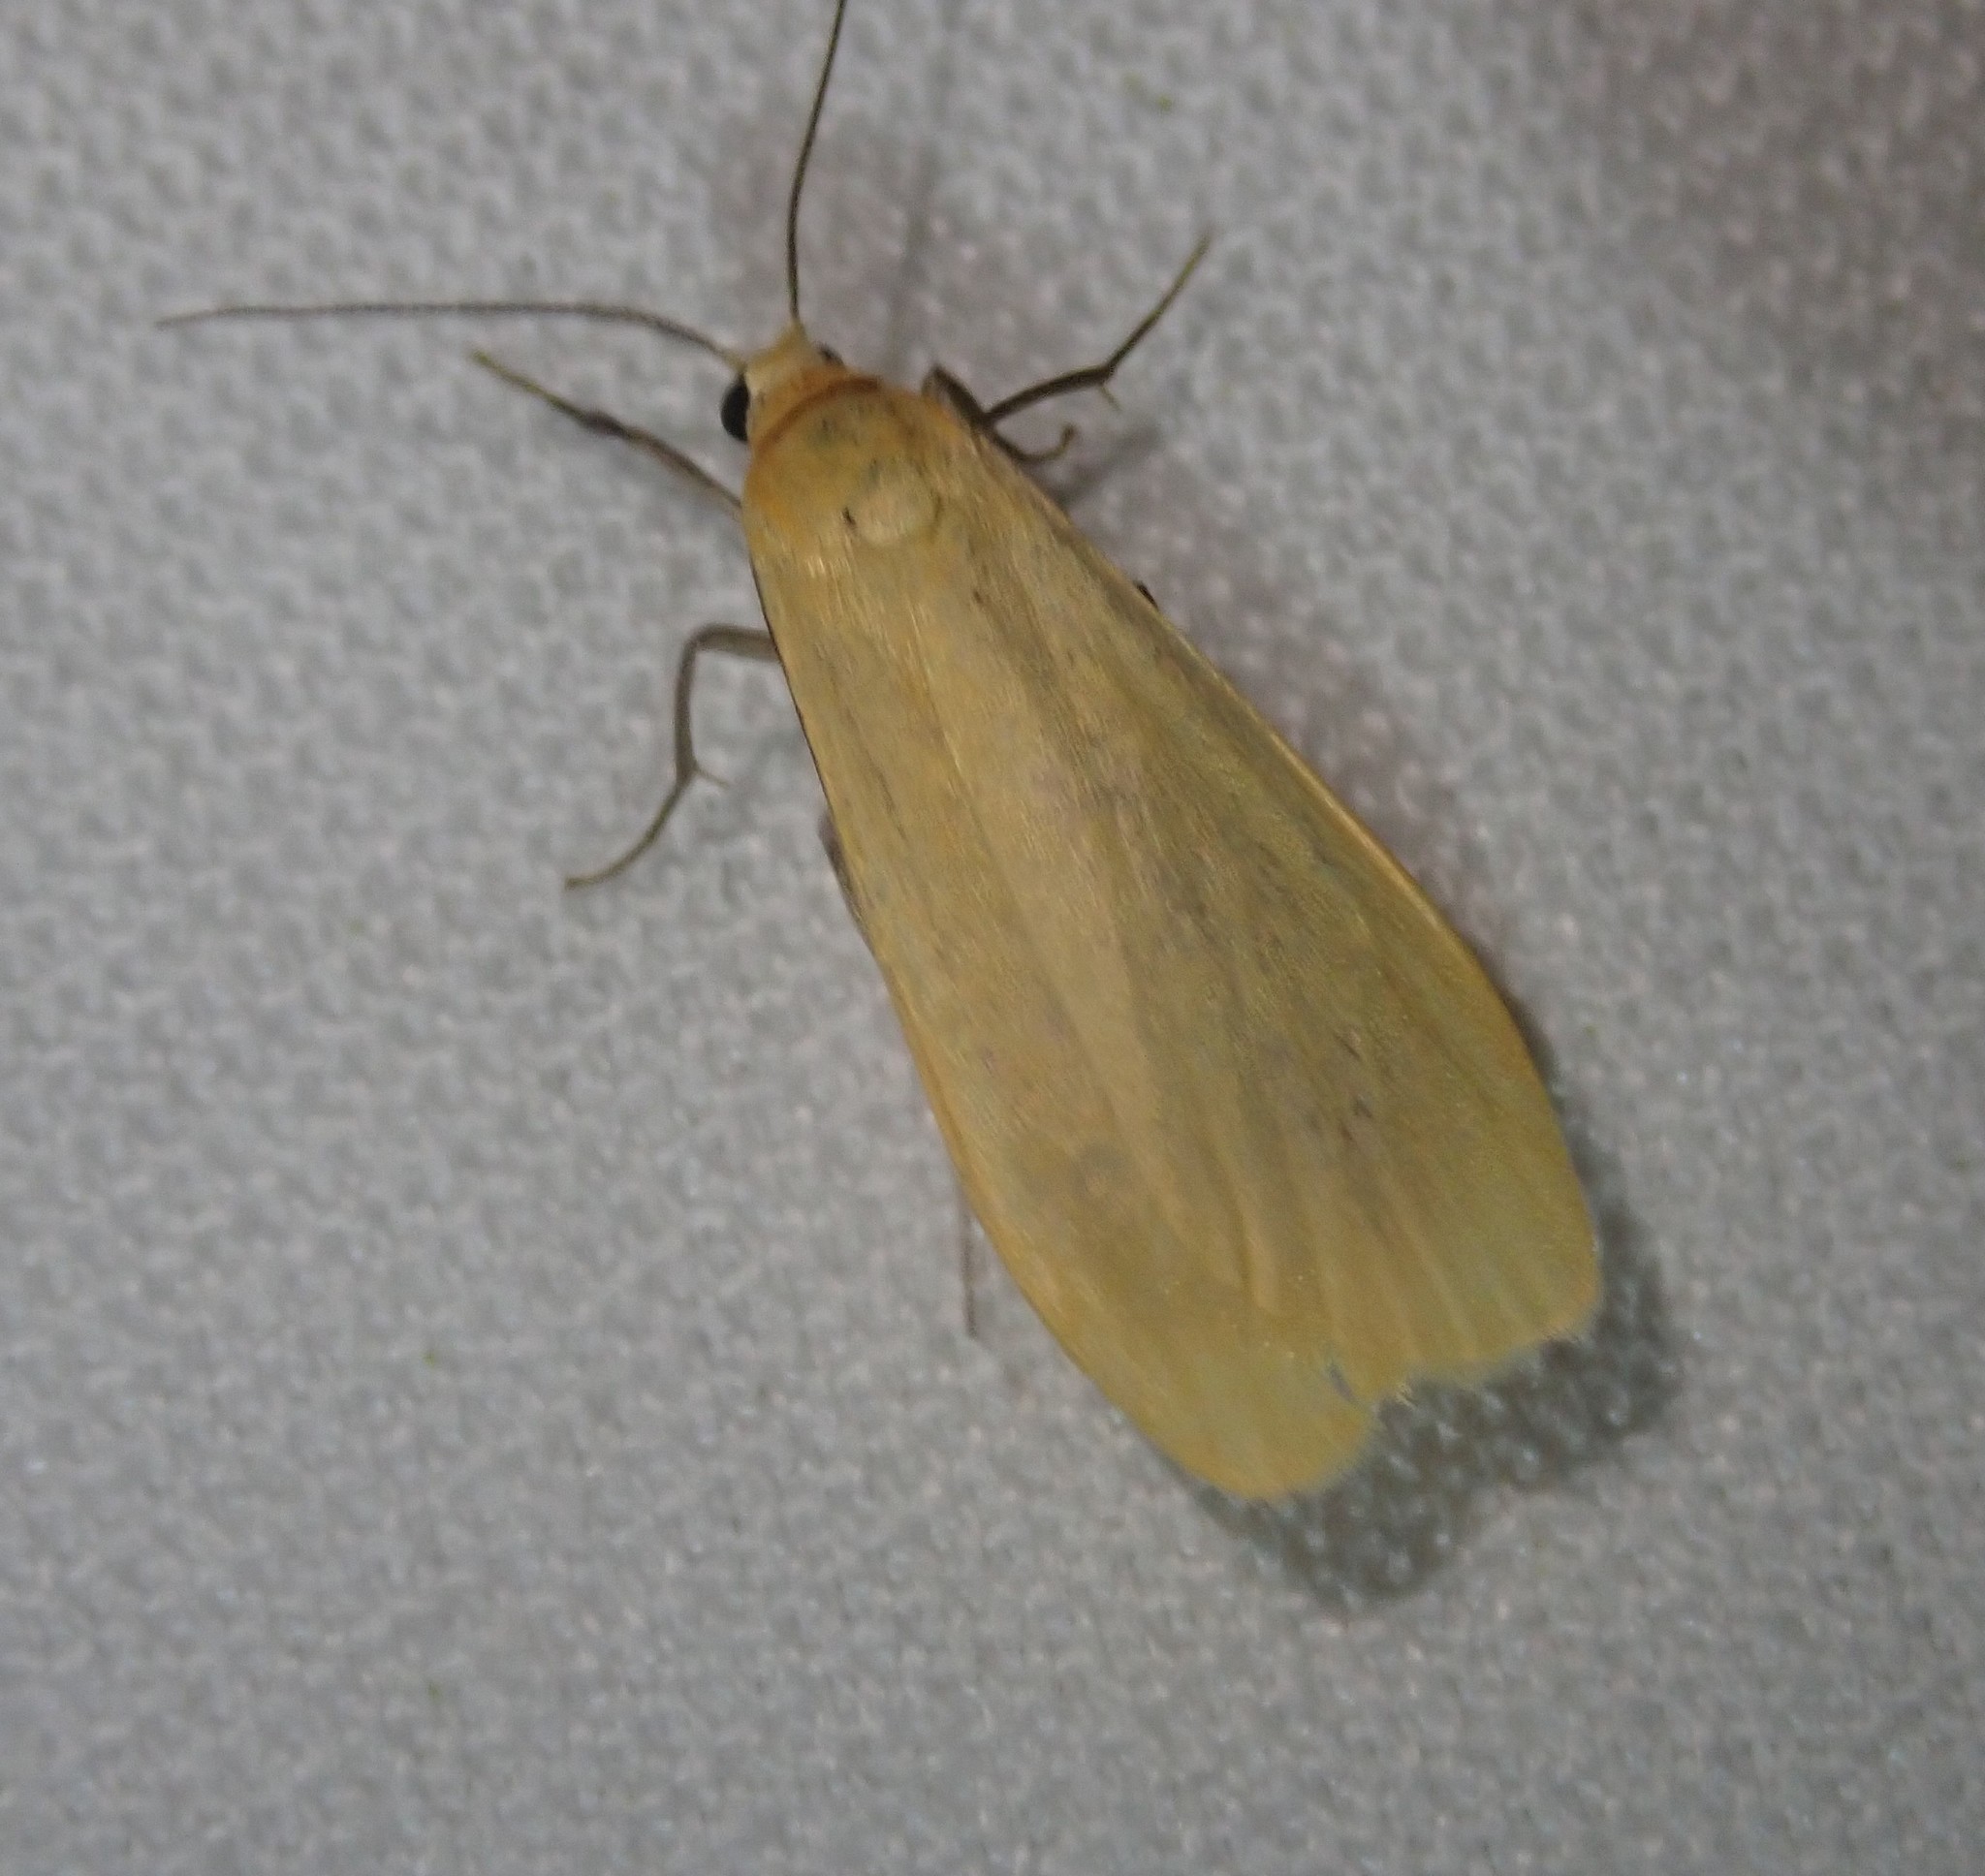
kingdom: Animalia
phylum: Arthropoda
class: Insecta
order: Lepidoptera
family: Erebidae
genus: Wittia
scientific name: Wittia sororcula
